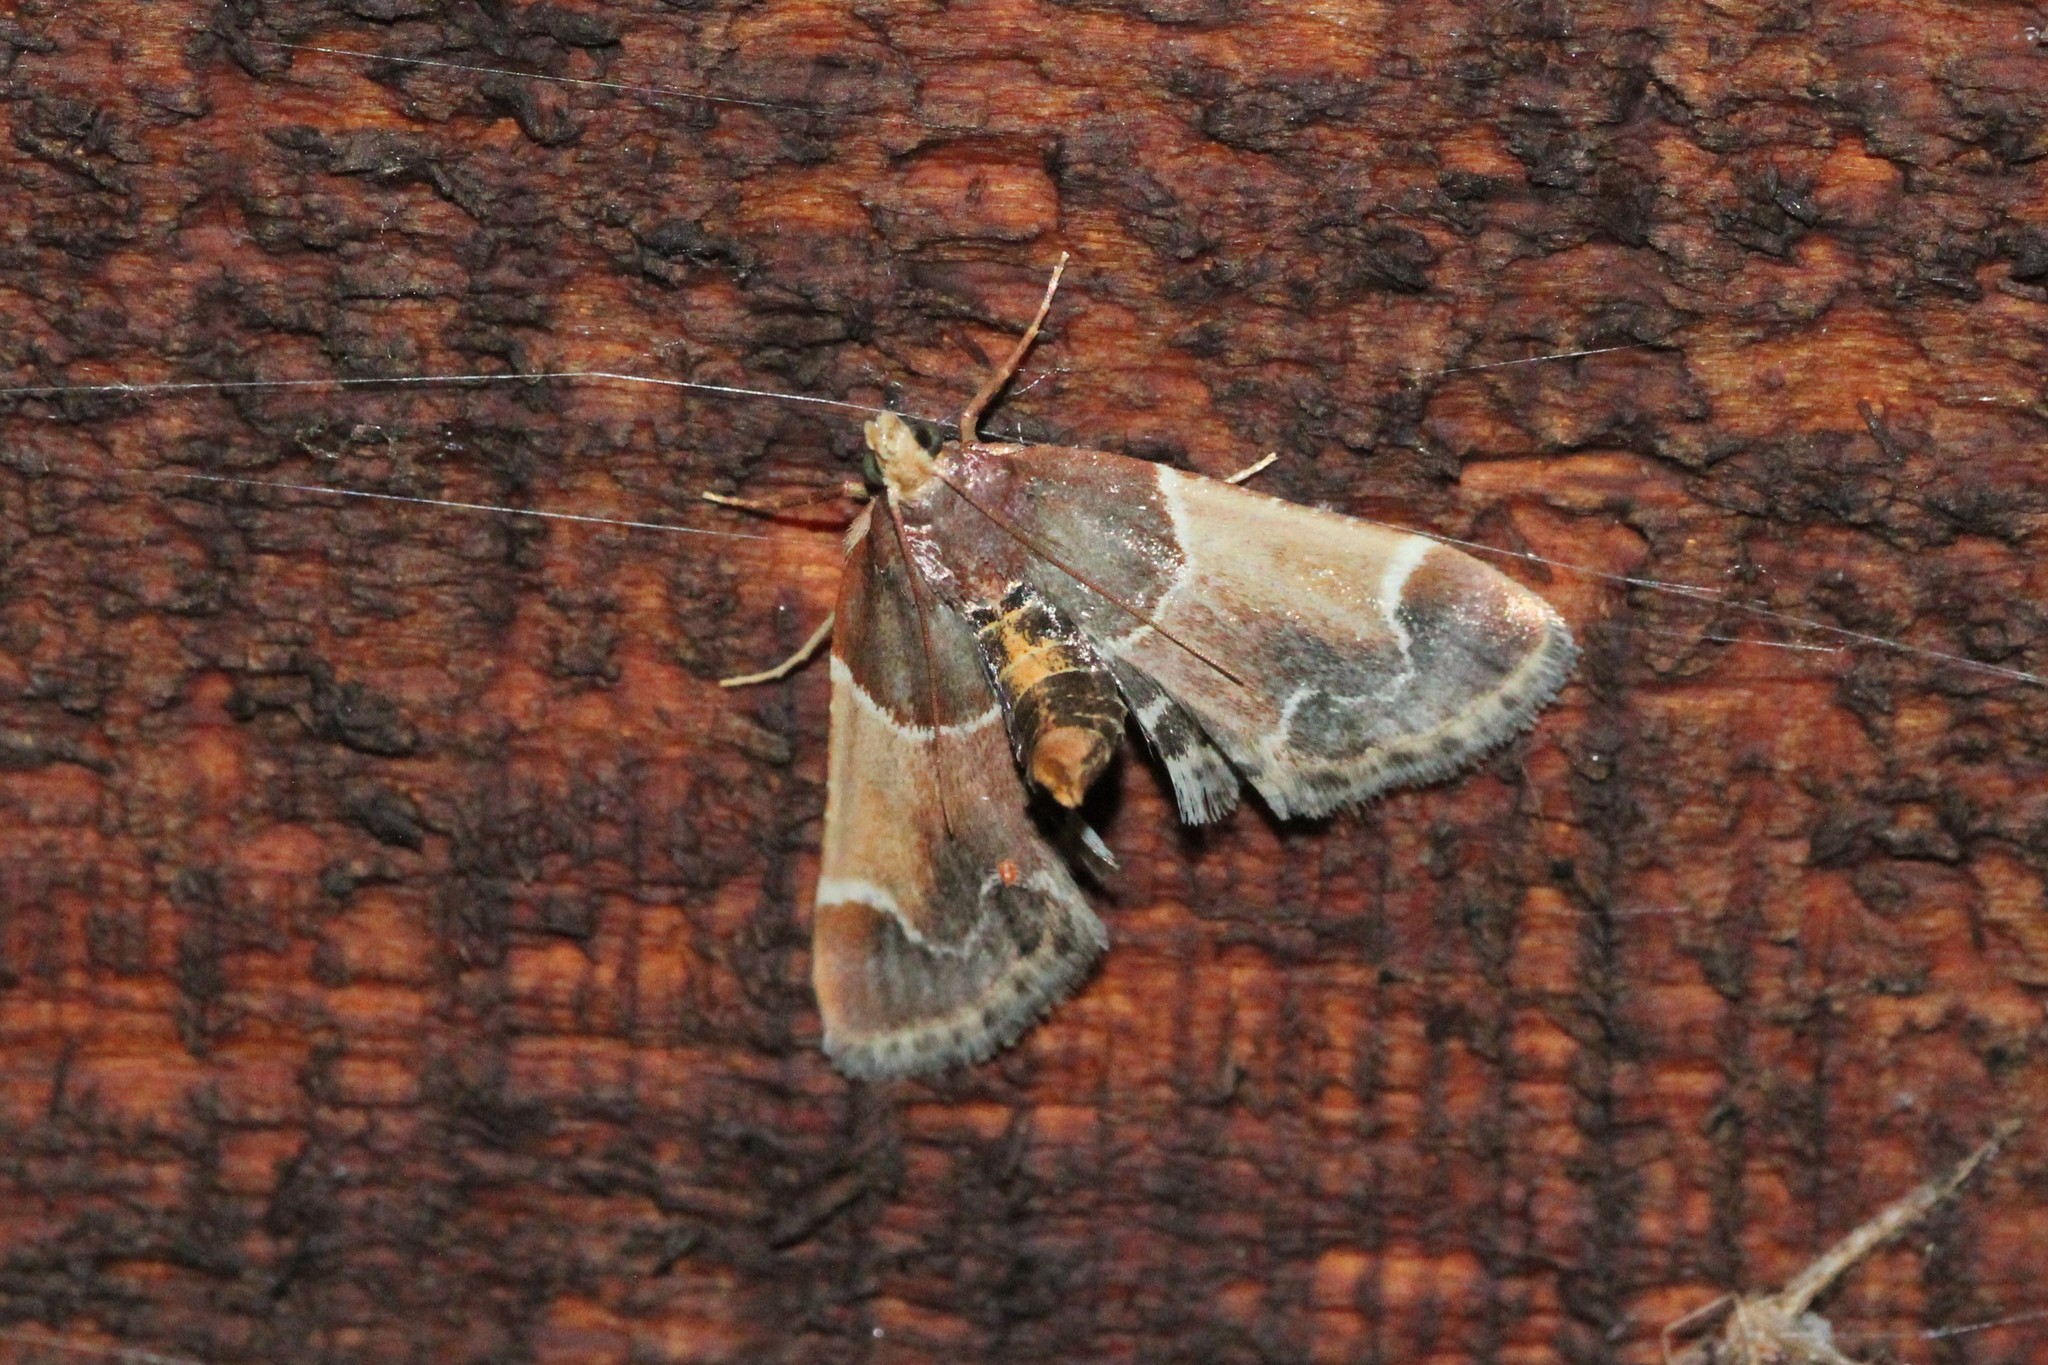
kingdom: Animalia
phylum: Arthropoda
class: Insecta
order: Lepidoptera
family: Pyralidae
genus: Pyralis
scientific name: Pyralis farinalis
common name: Meal moth
